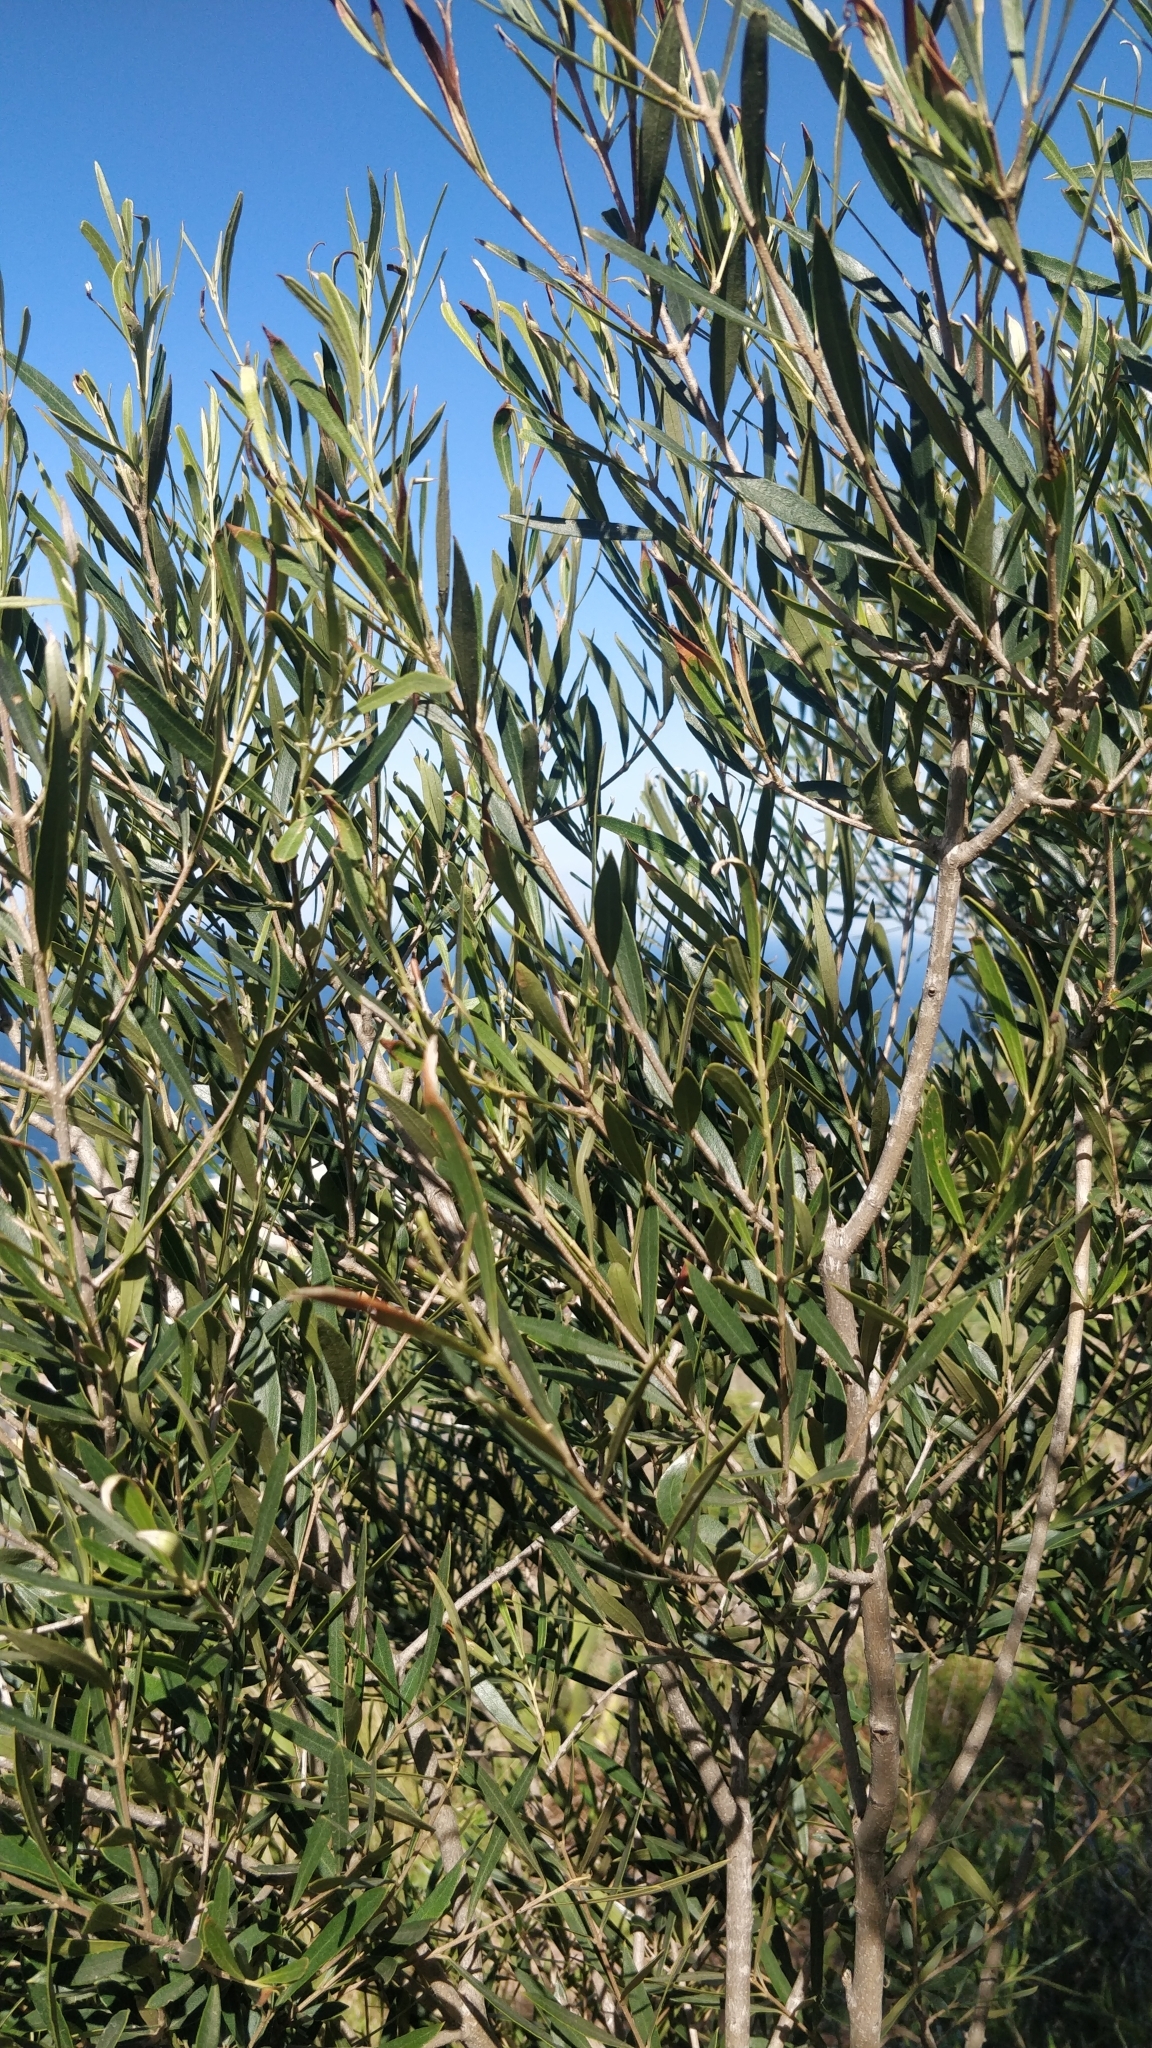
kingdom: Plantae
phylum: Tracheophyta
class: Magnoliopsida
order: Lamiales
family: Oleaceae
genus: Olea
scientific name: Olea europaea
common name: Olive
